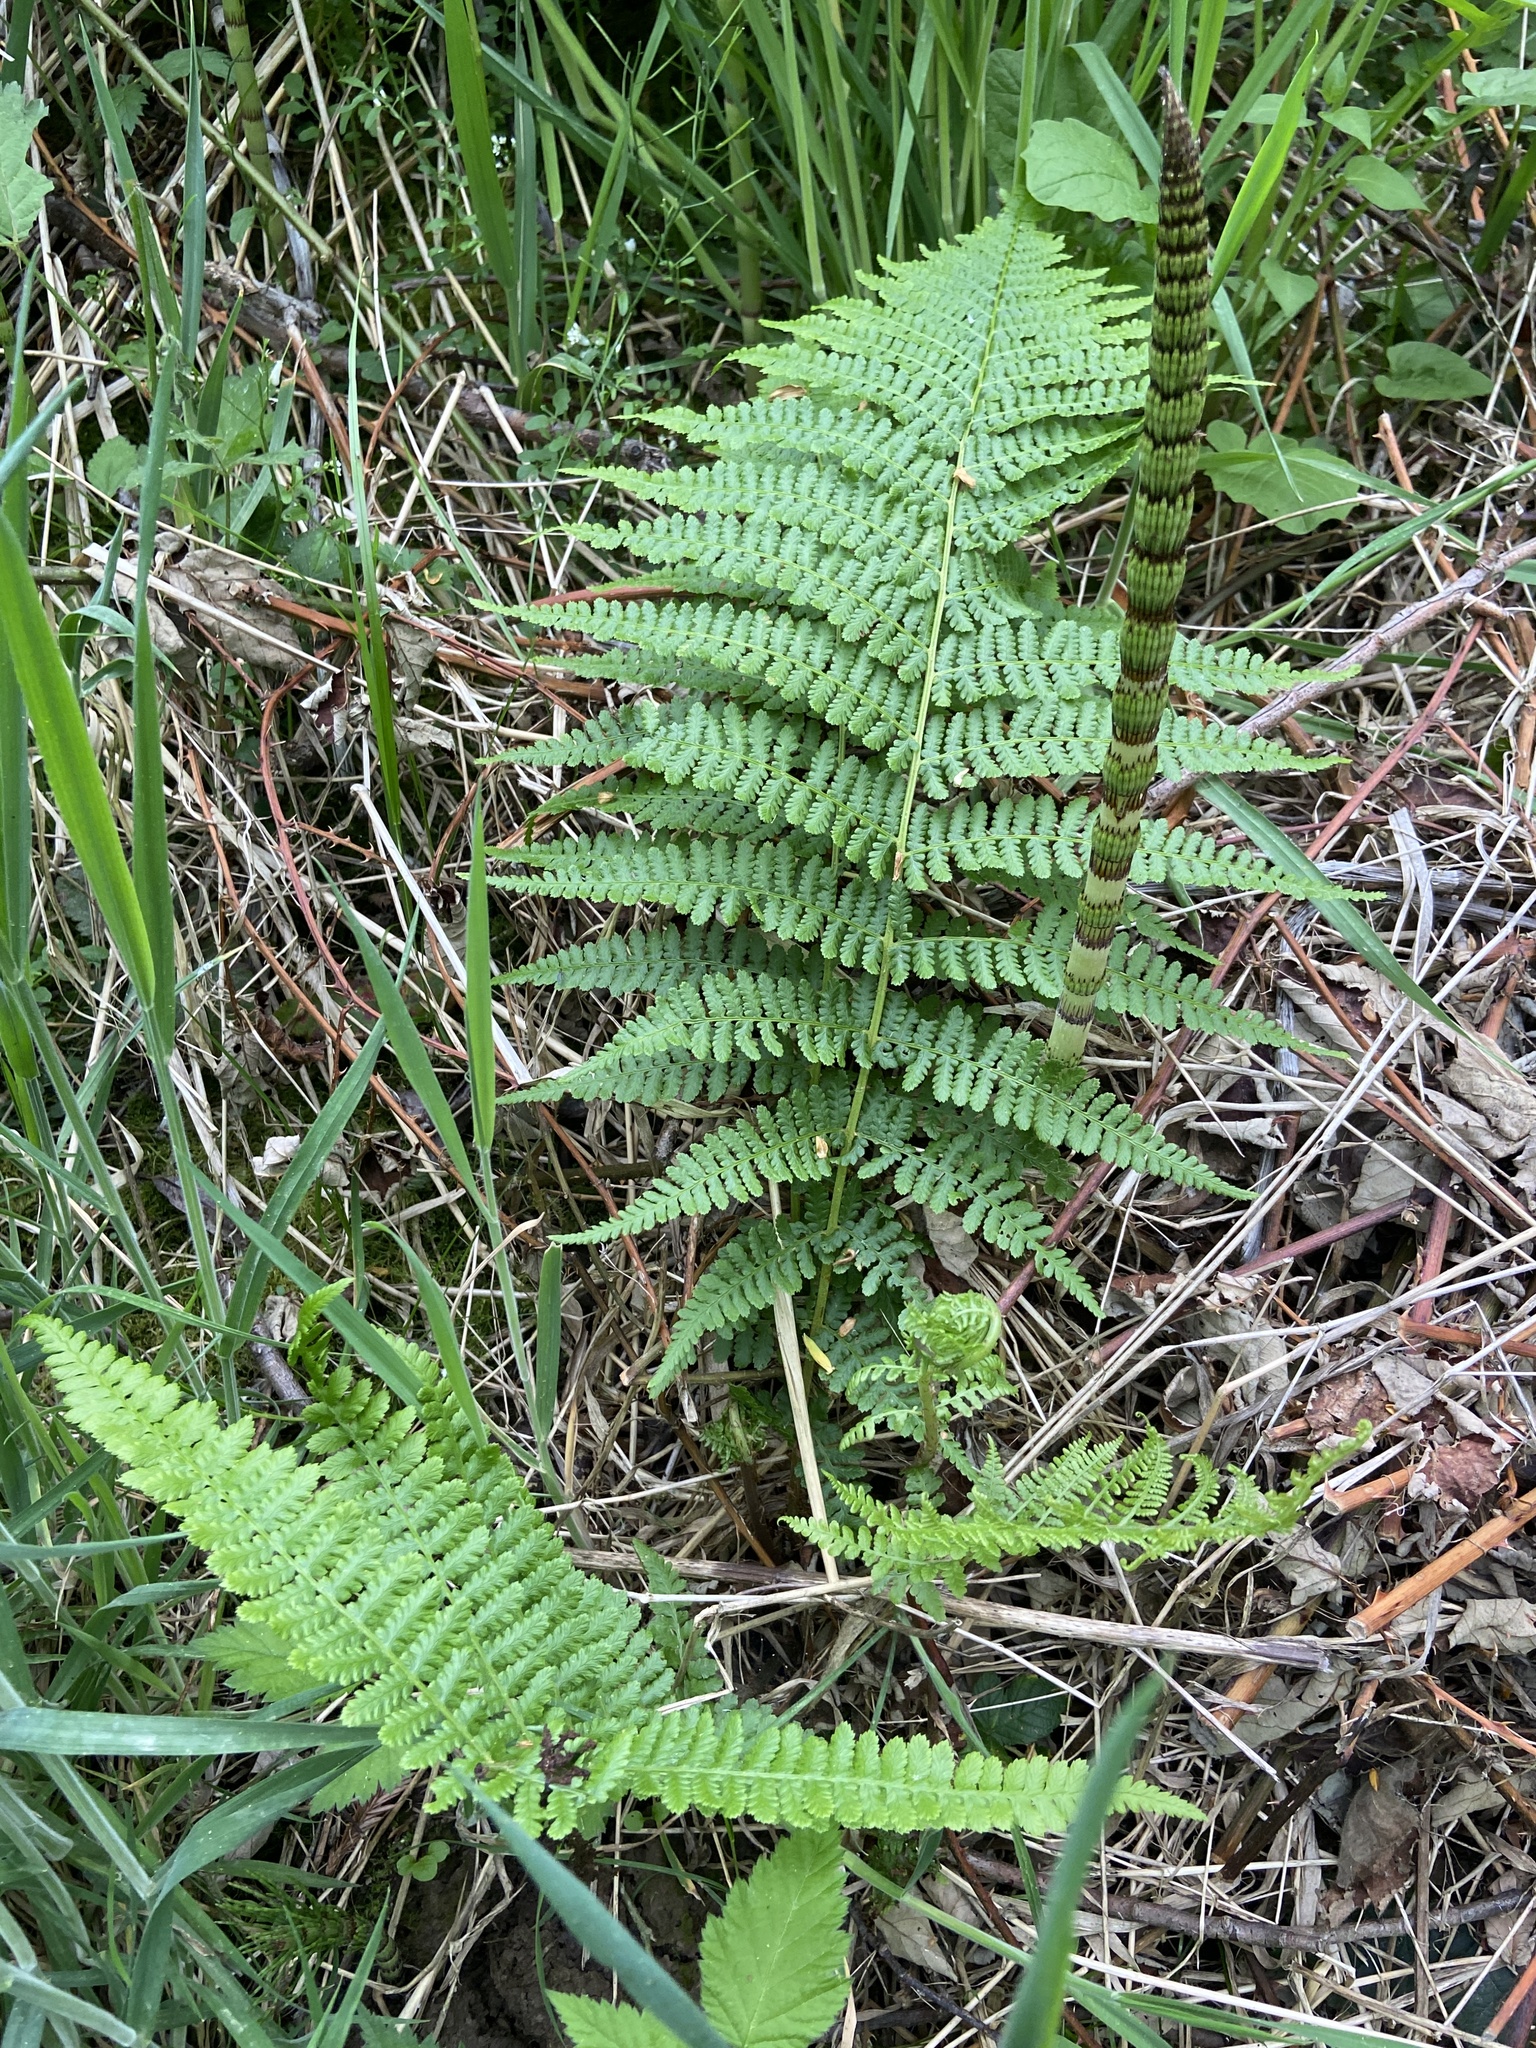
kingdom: Plantae
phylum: Tracheophyta
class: Polypodiopsida
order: Polypodiales
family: Athyriaceae
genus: Athyrium
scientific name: Athyrium filix-femina
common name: Lady fern
